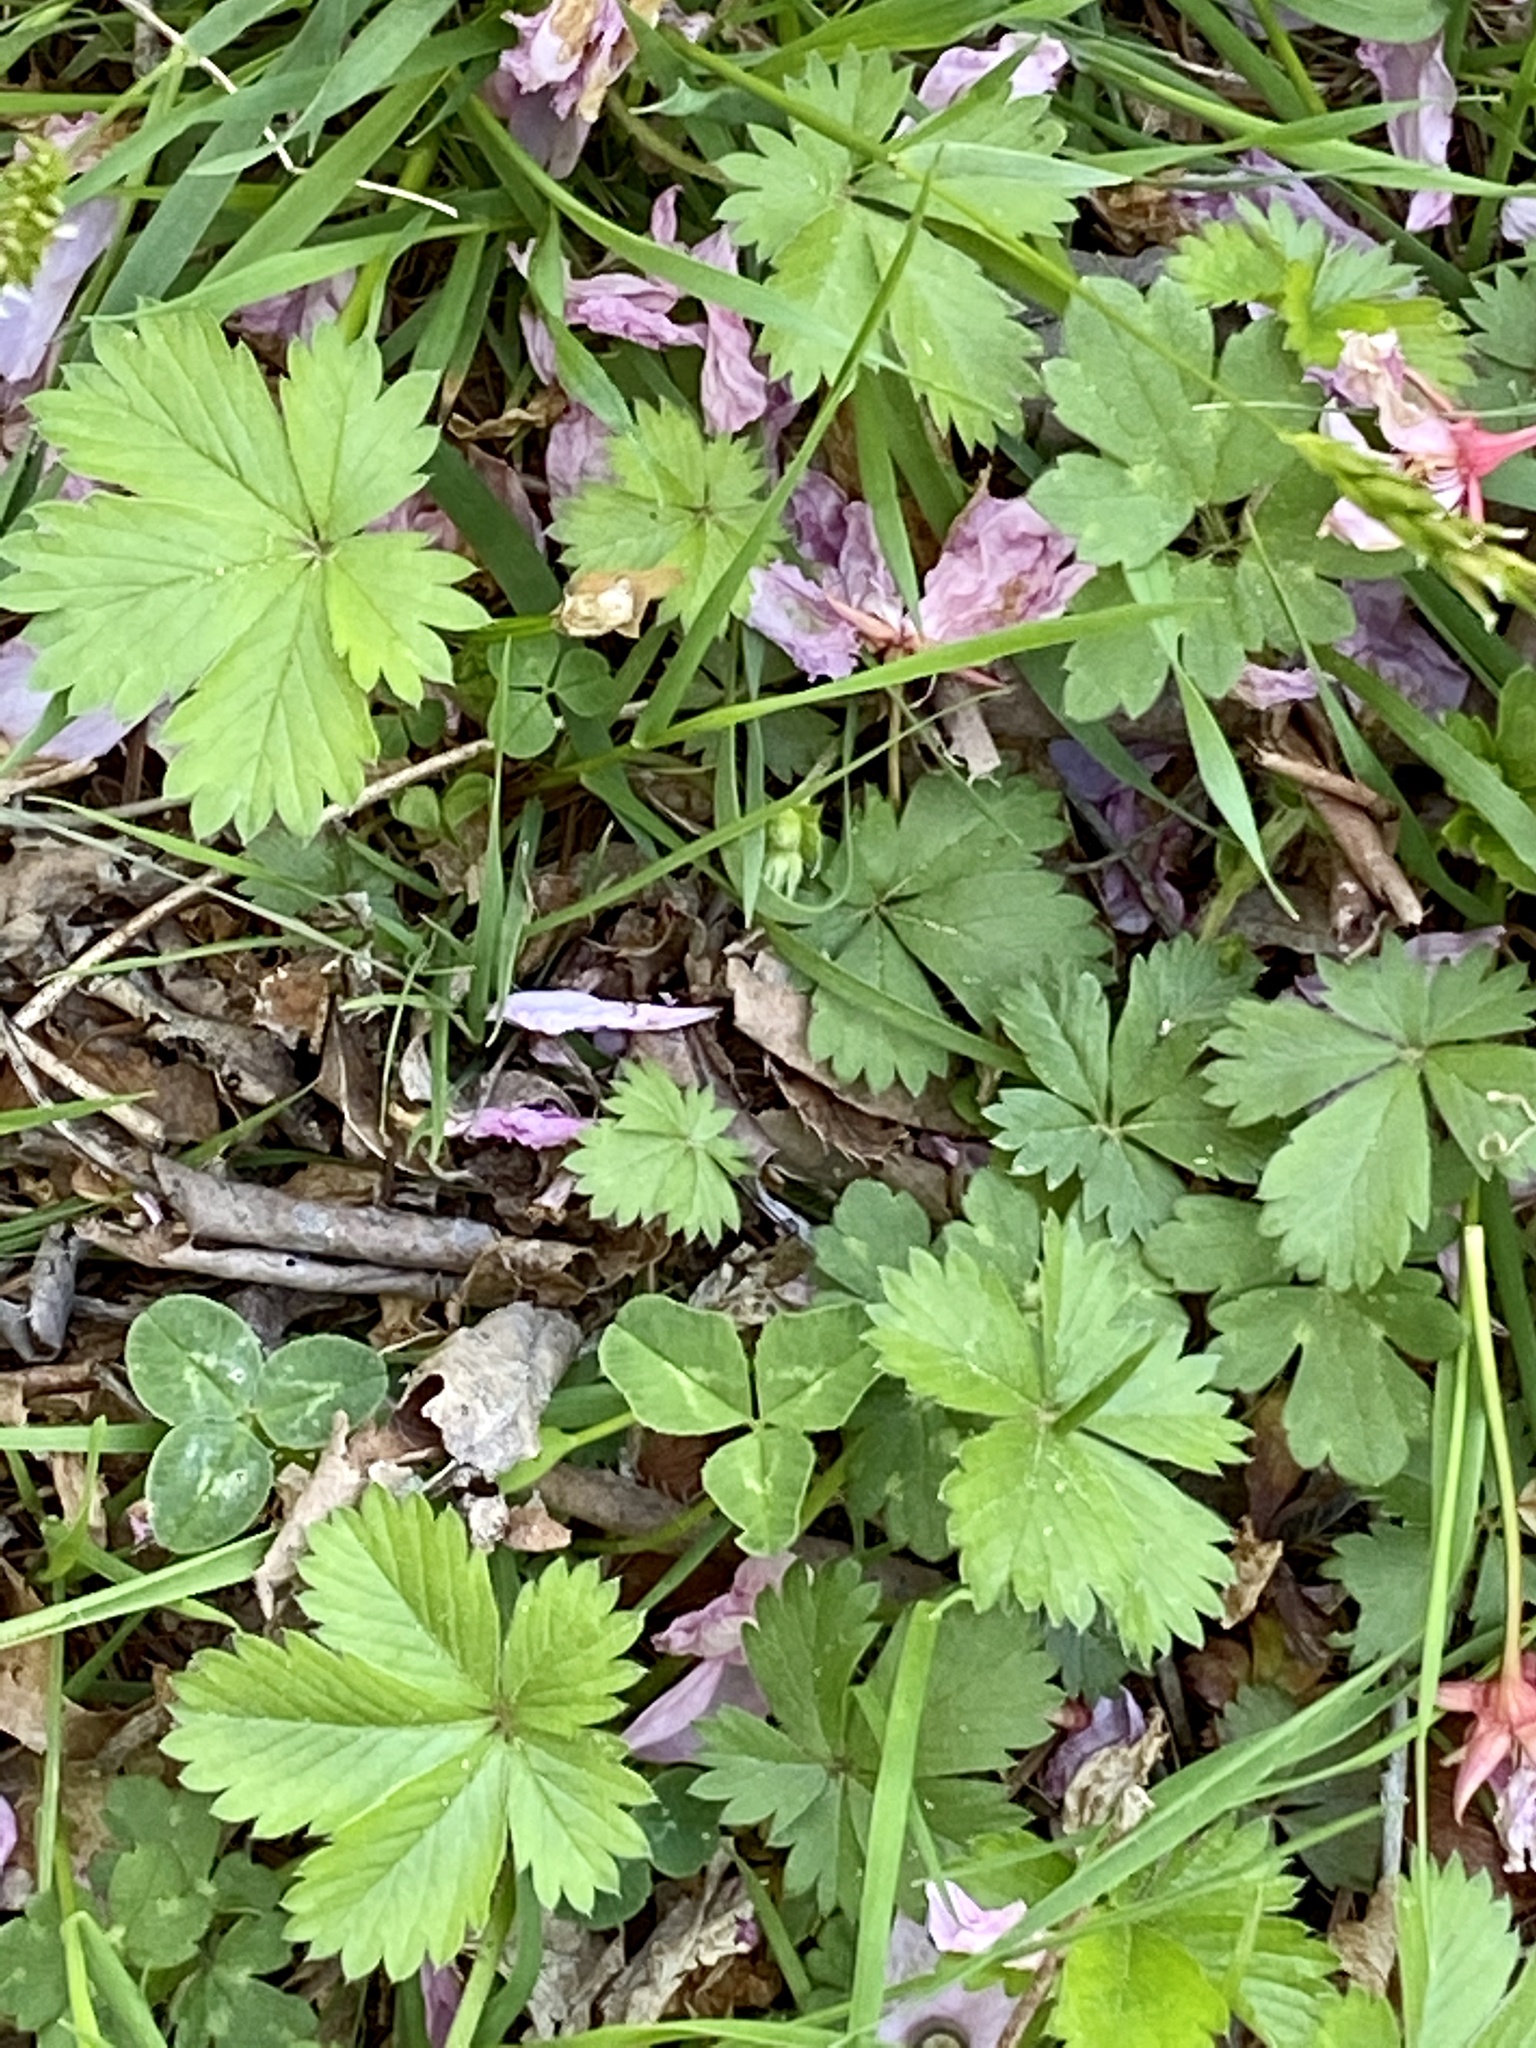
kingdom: Plantae
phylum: Tracheophyta
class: Magnoliopsida
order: Rosales
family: Rosaceae
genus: Potentilla
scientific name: Potentilla canadensis
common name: Canada cinquefoil
